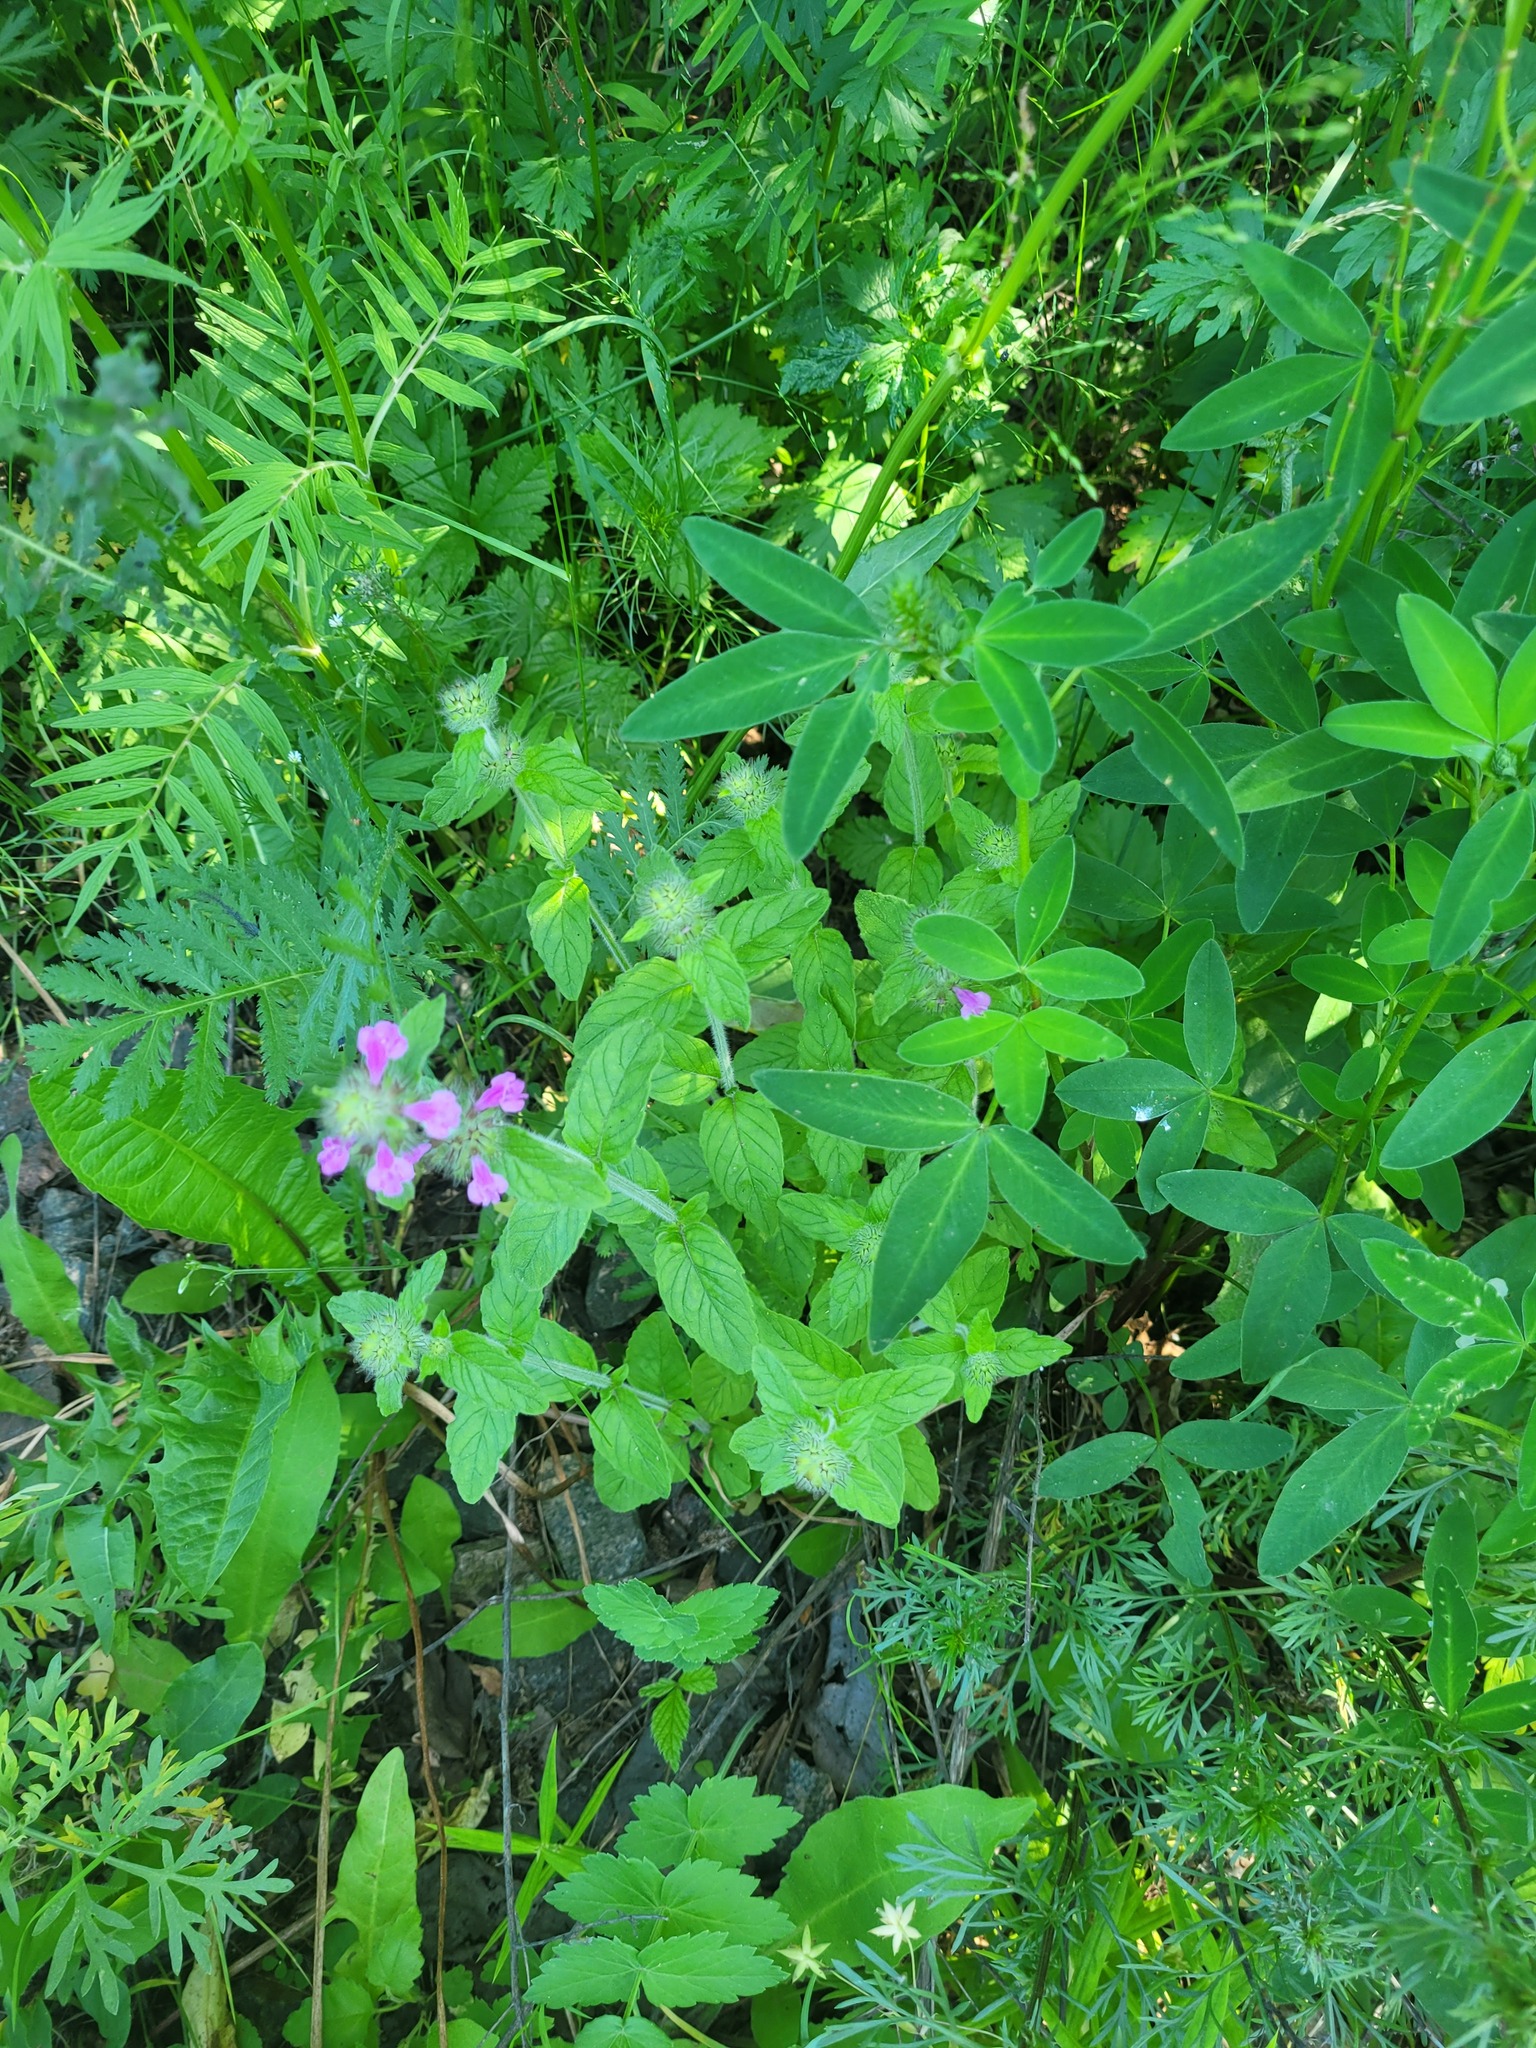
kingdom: Plantae
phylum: Tracheophyta
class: Magnoliopsida
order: Lamiales
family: Lamiaceae
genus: Clinopodium
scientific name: Clinopodium vulgare
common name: Wild basil
